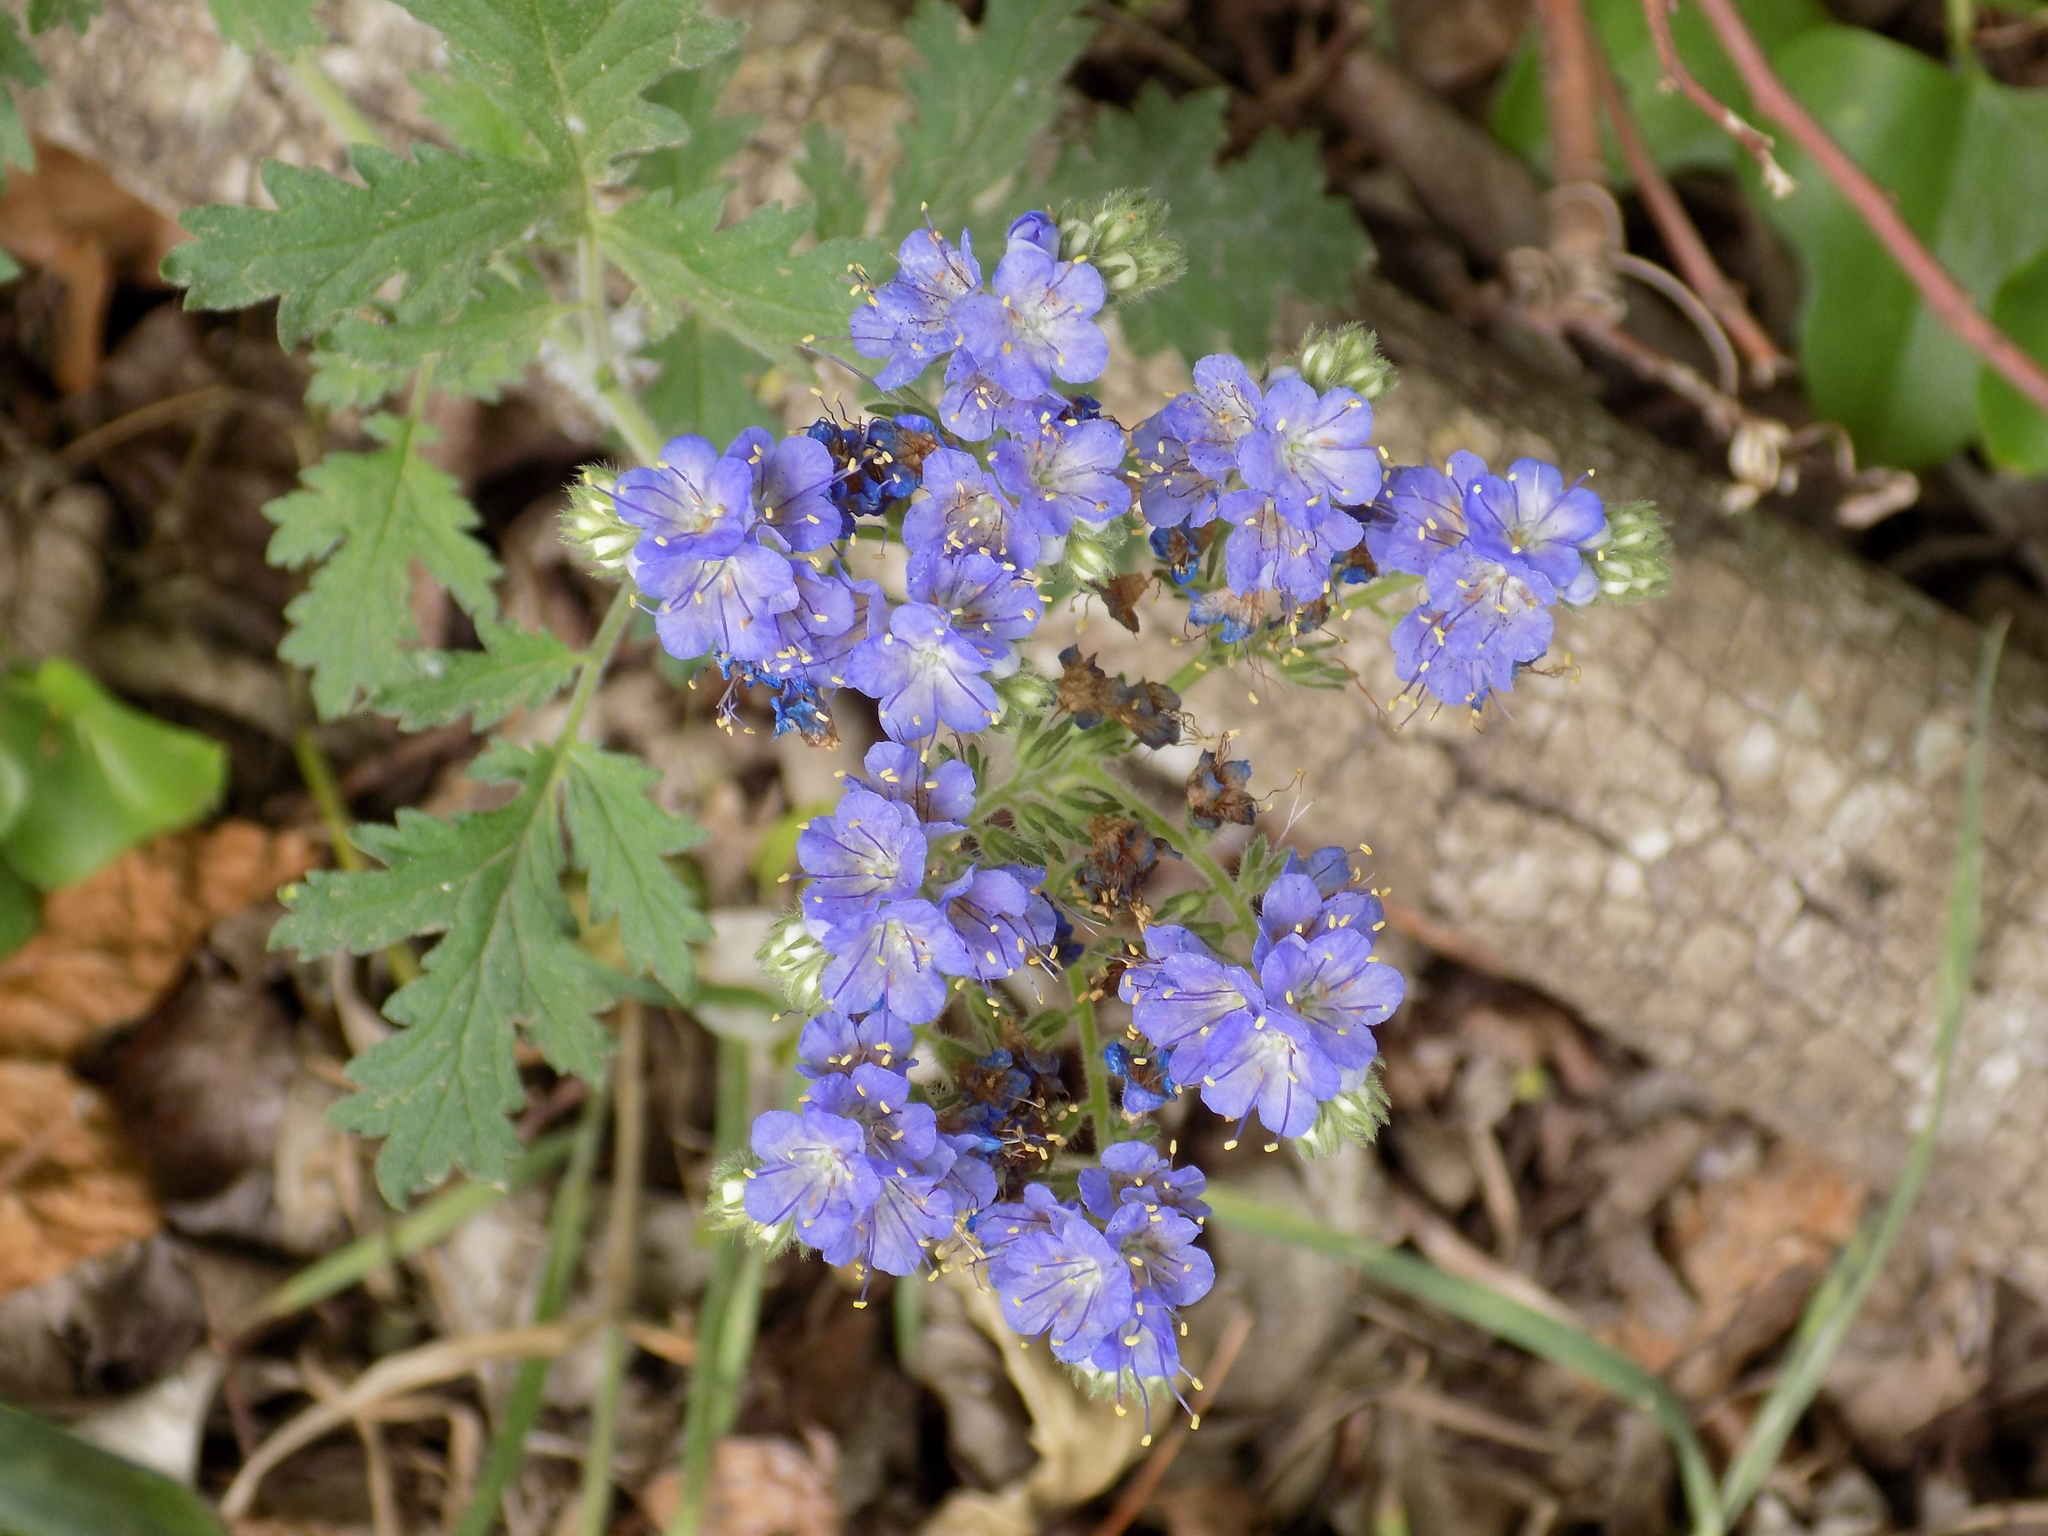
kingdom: Plantae
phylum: Tracheophyta
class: Magnoliopsida
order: Boraginales
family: Hydrophyllaceae
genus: Phacelia
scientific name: Phacelia congesta
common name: Blue curls
